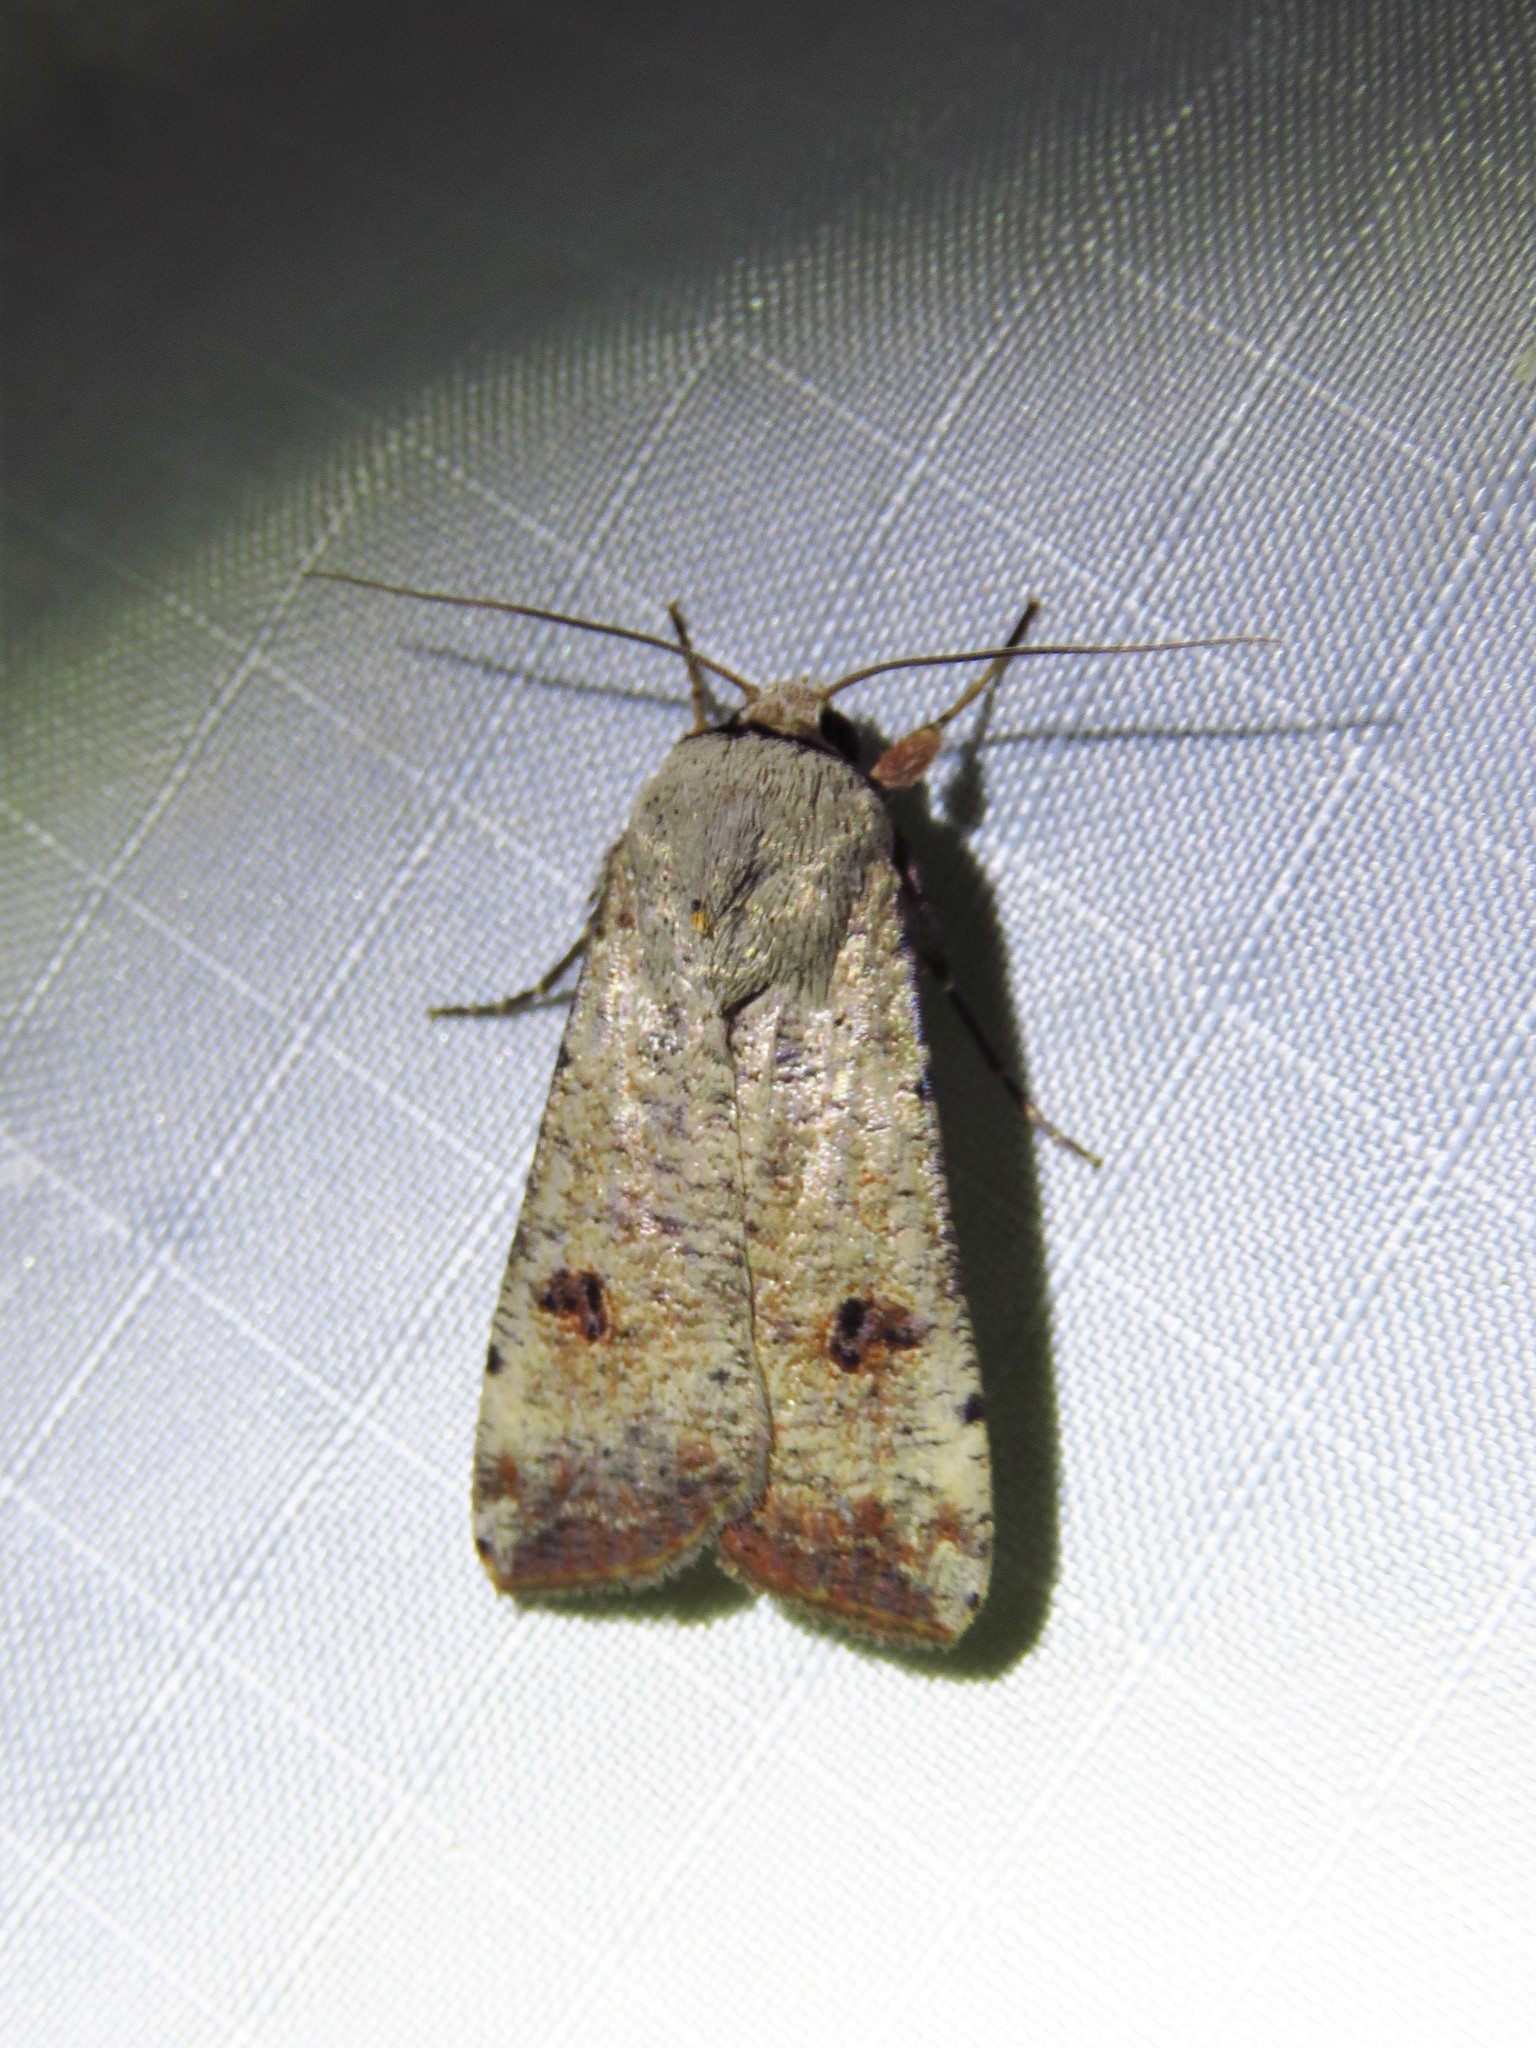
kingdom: Animalia
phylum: Arthropoda
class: Insecta
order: Lepidoptera
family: Noctuidae
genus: Anicla
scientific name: Anicla infecta
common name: Green cutworm
